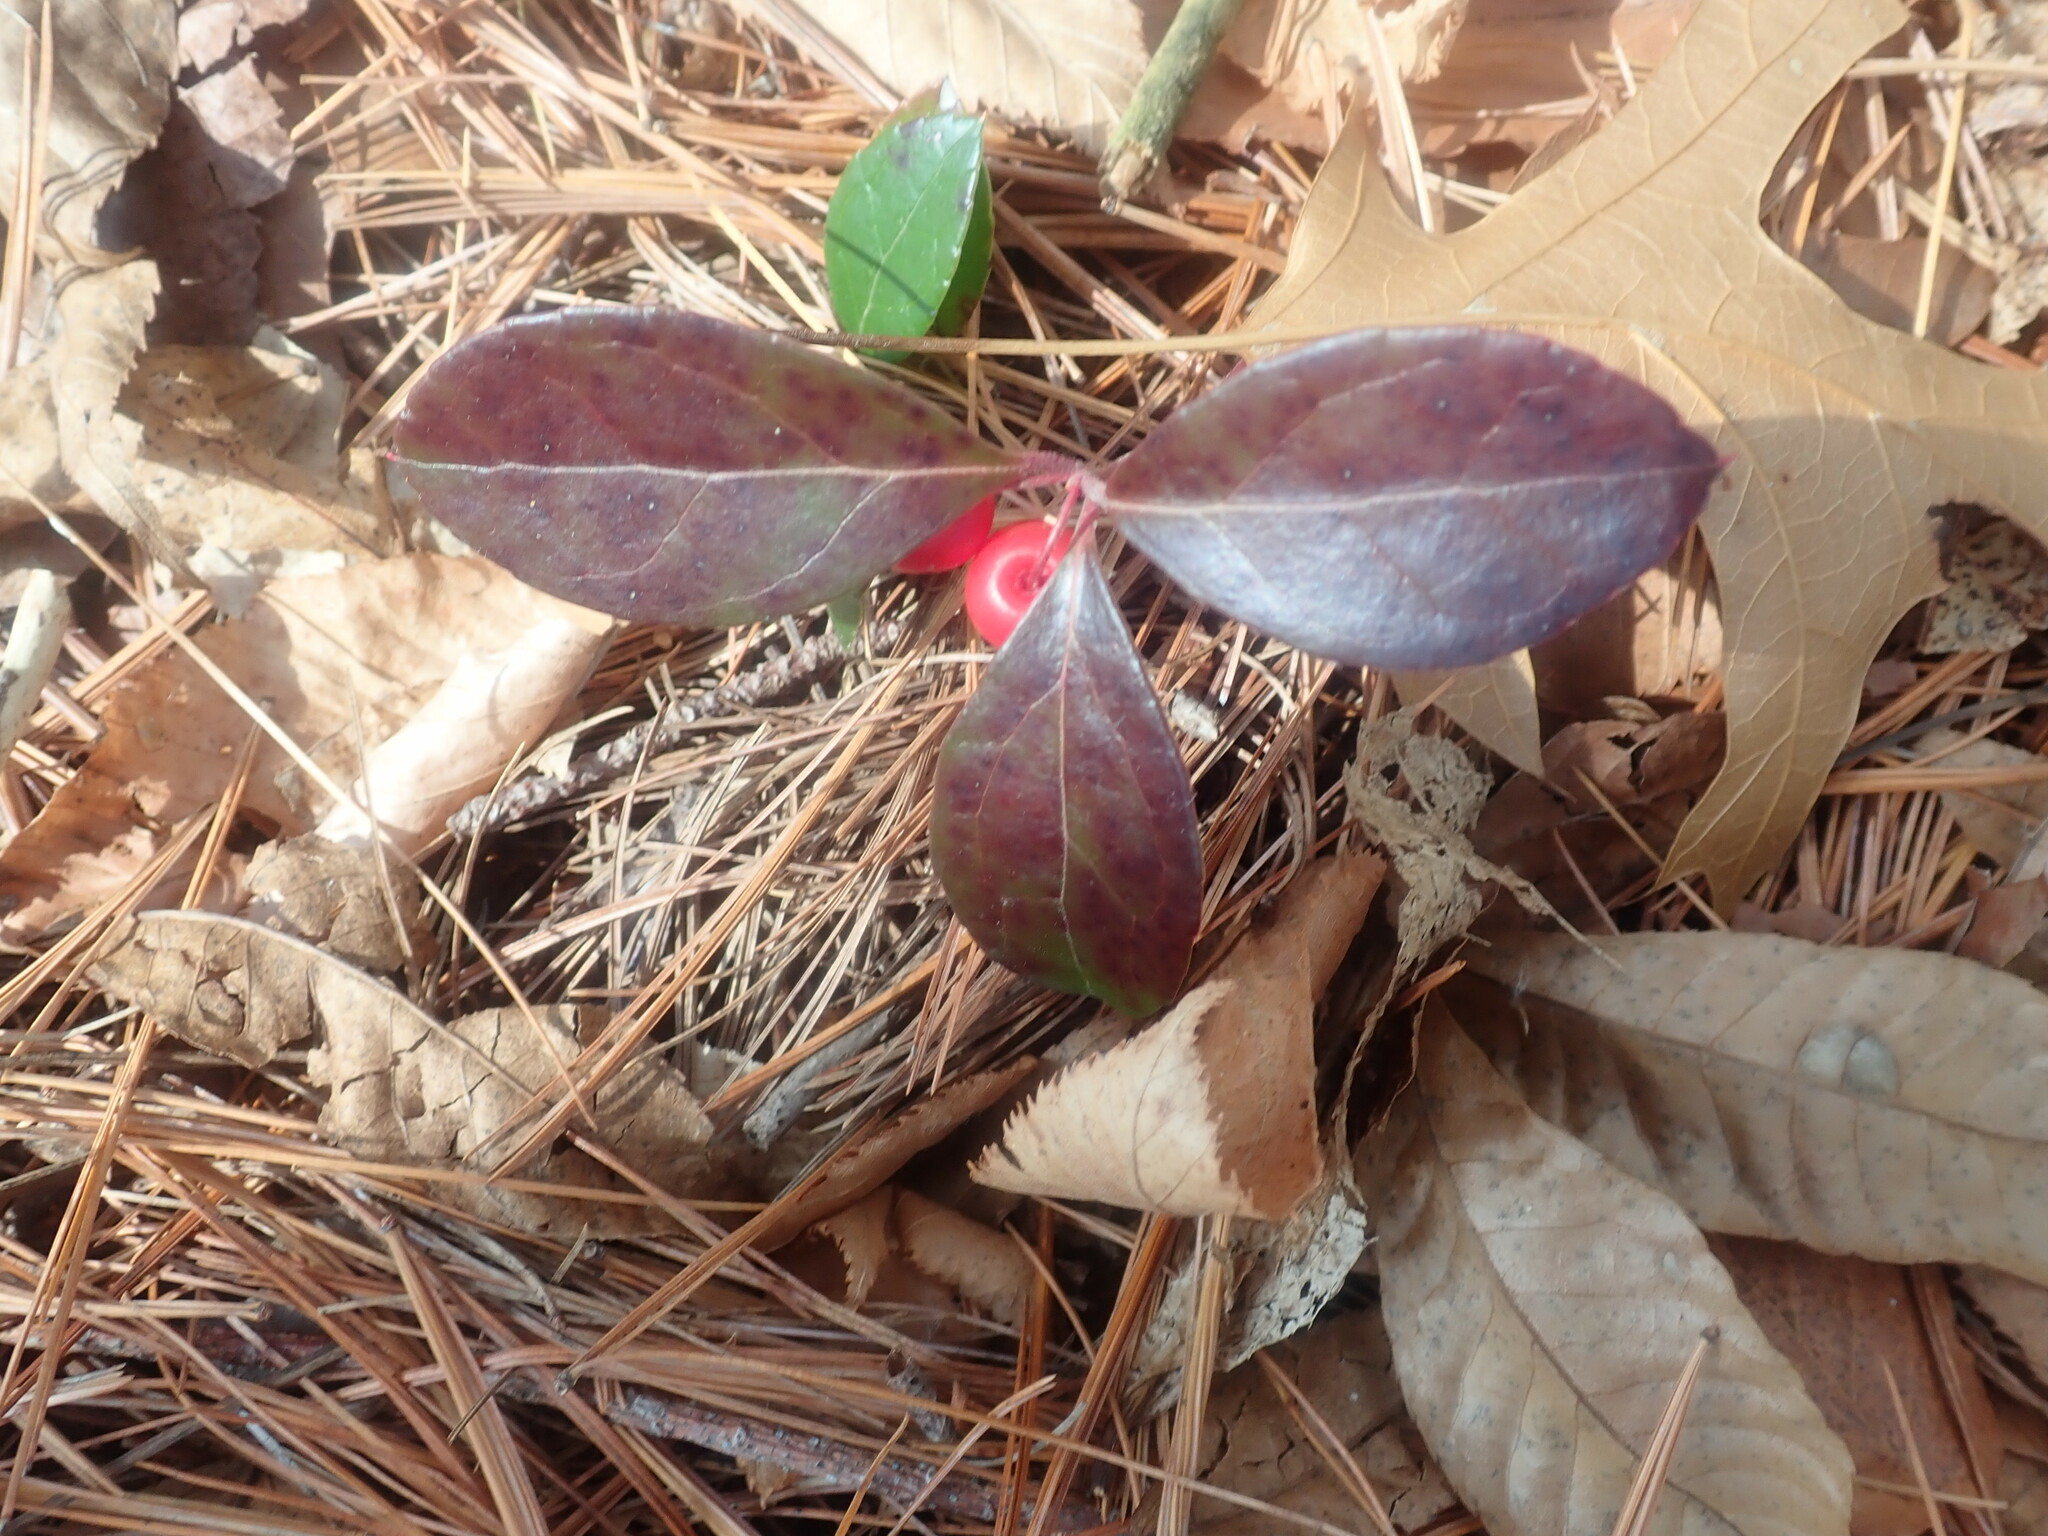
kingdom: Plantae
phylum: Tracheophyta
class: Magnoliopsida
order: Ericales
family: Ericaceae
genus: Gaultheria
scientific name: Gaultheria procumbens
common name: Checkerberry
